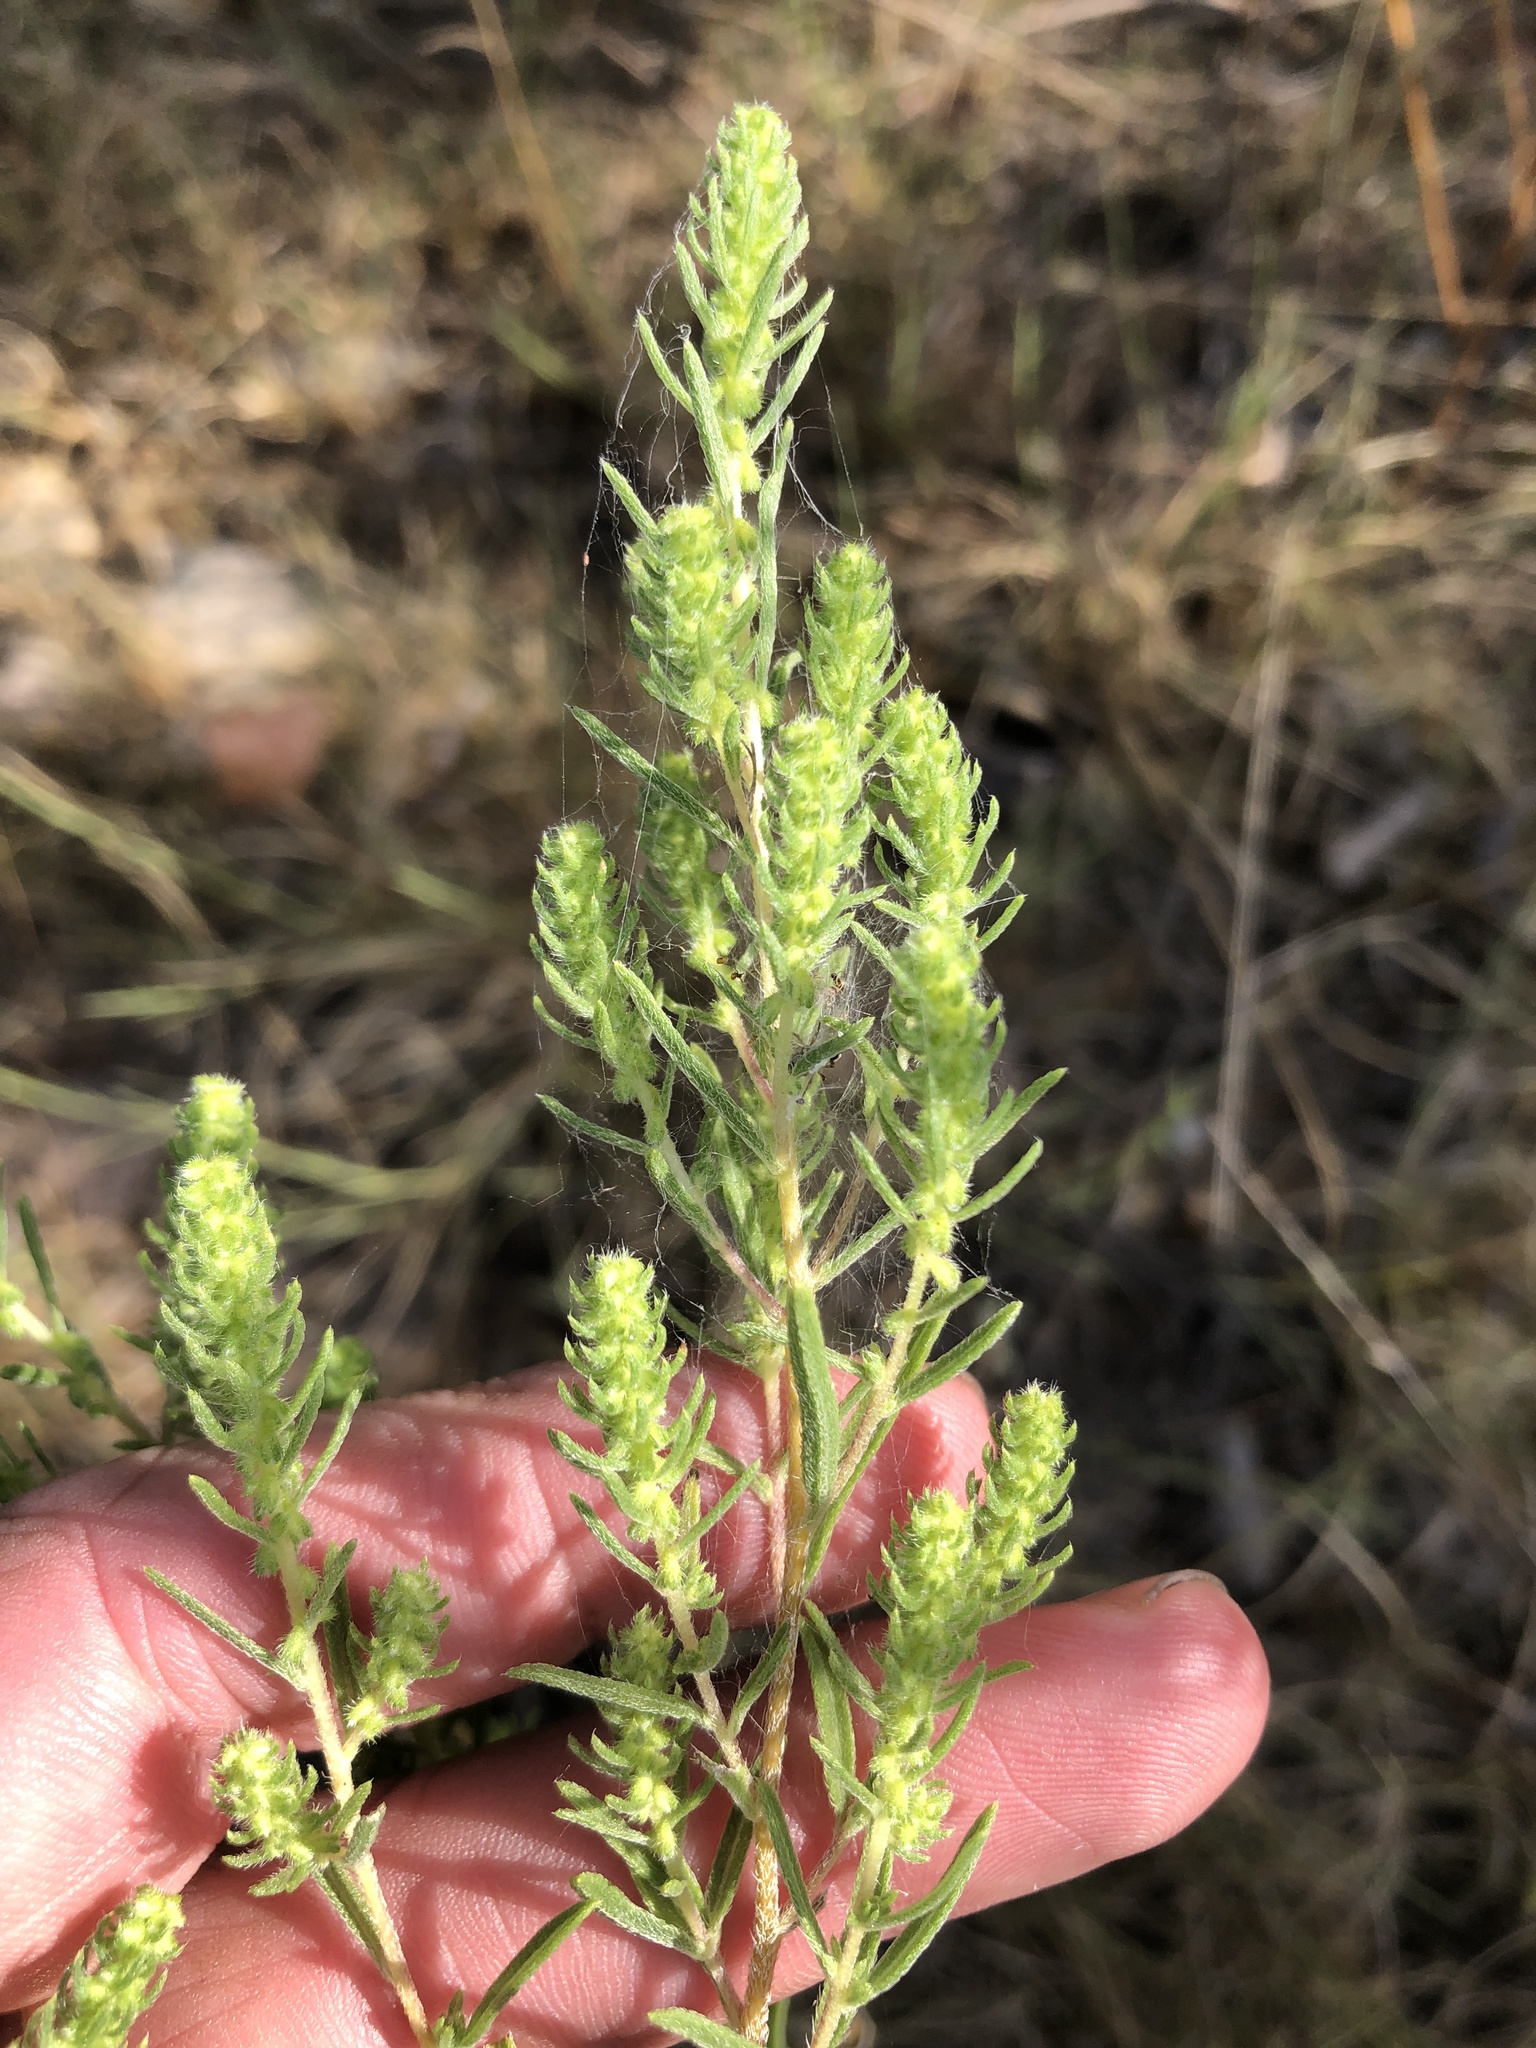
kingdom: Plantae
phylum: Tracheophyta
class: Magnoliopsida
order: Asterales
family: Asteraceae
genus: Iva
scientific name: Iva asperifolia
